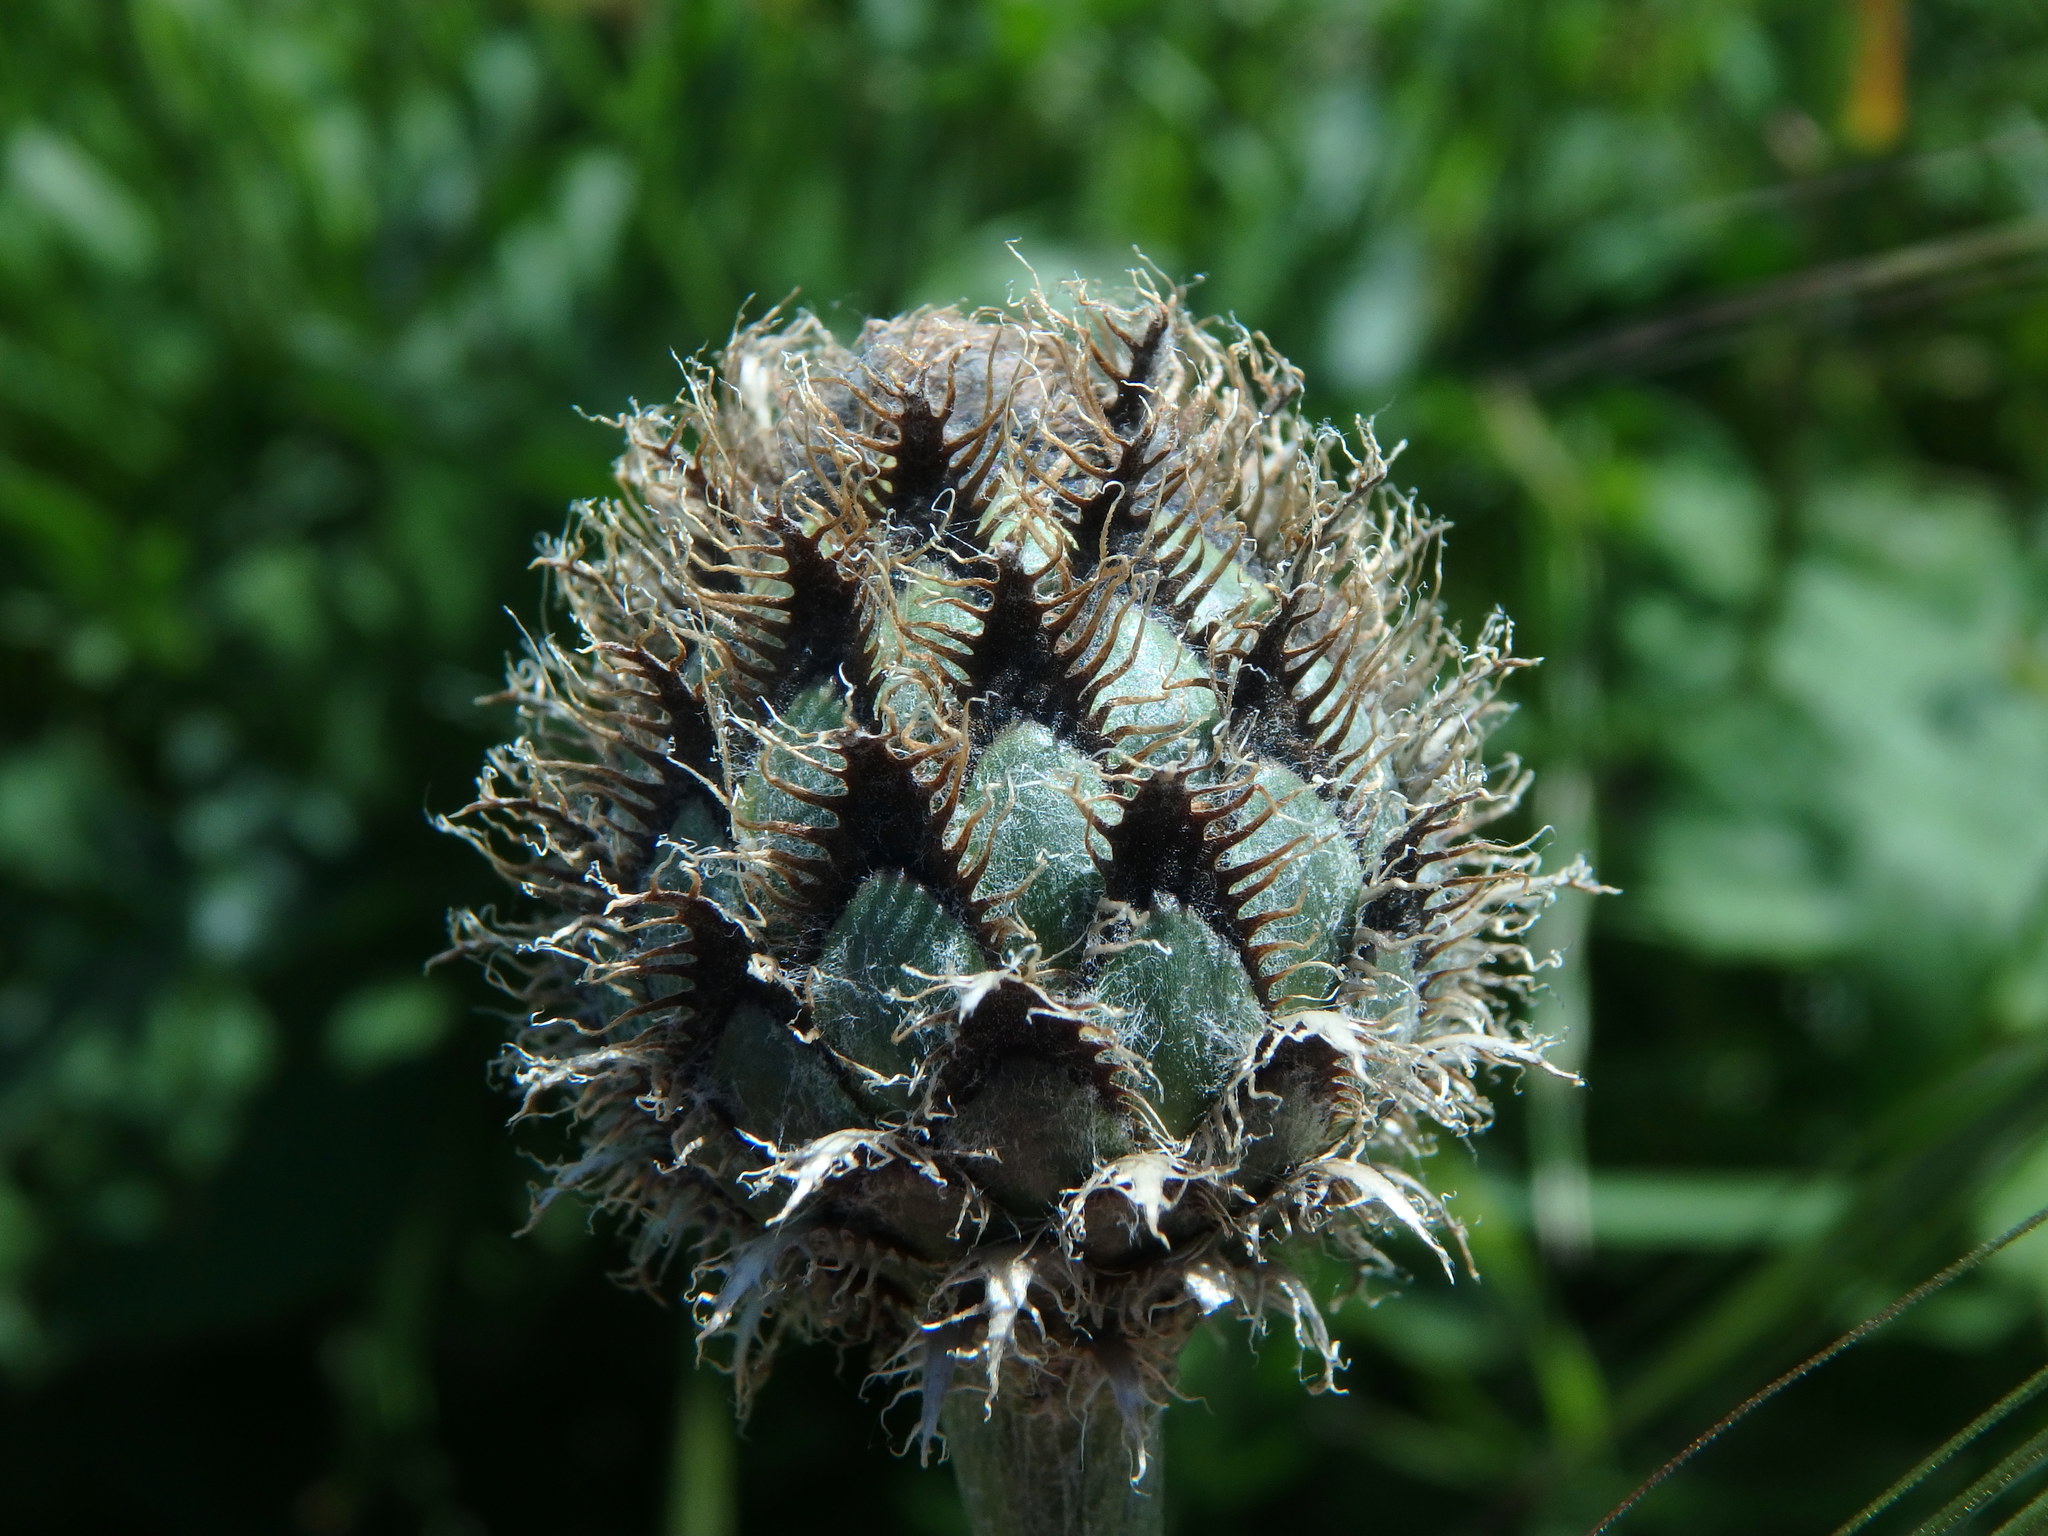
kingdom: Plantae
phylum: Tracheophyta
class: Magnoliopsida
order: Asterales
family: Asteraceae
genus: Centaurea
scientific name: Centaurea scabiosa
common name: Greater knapweed
